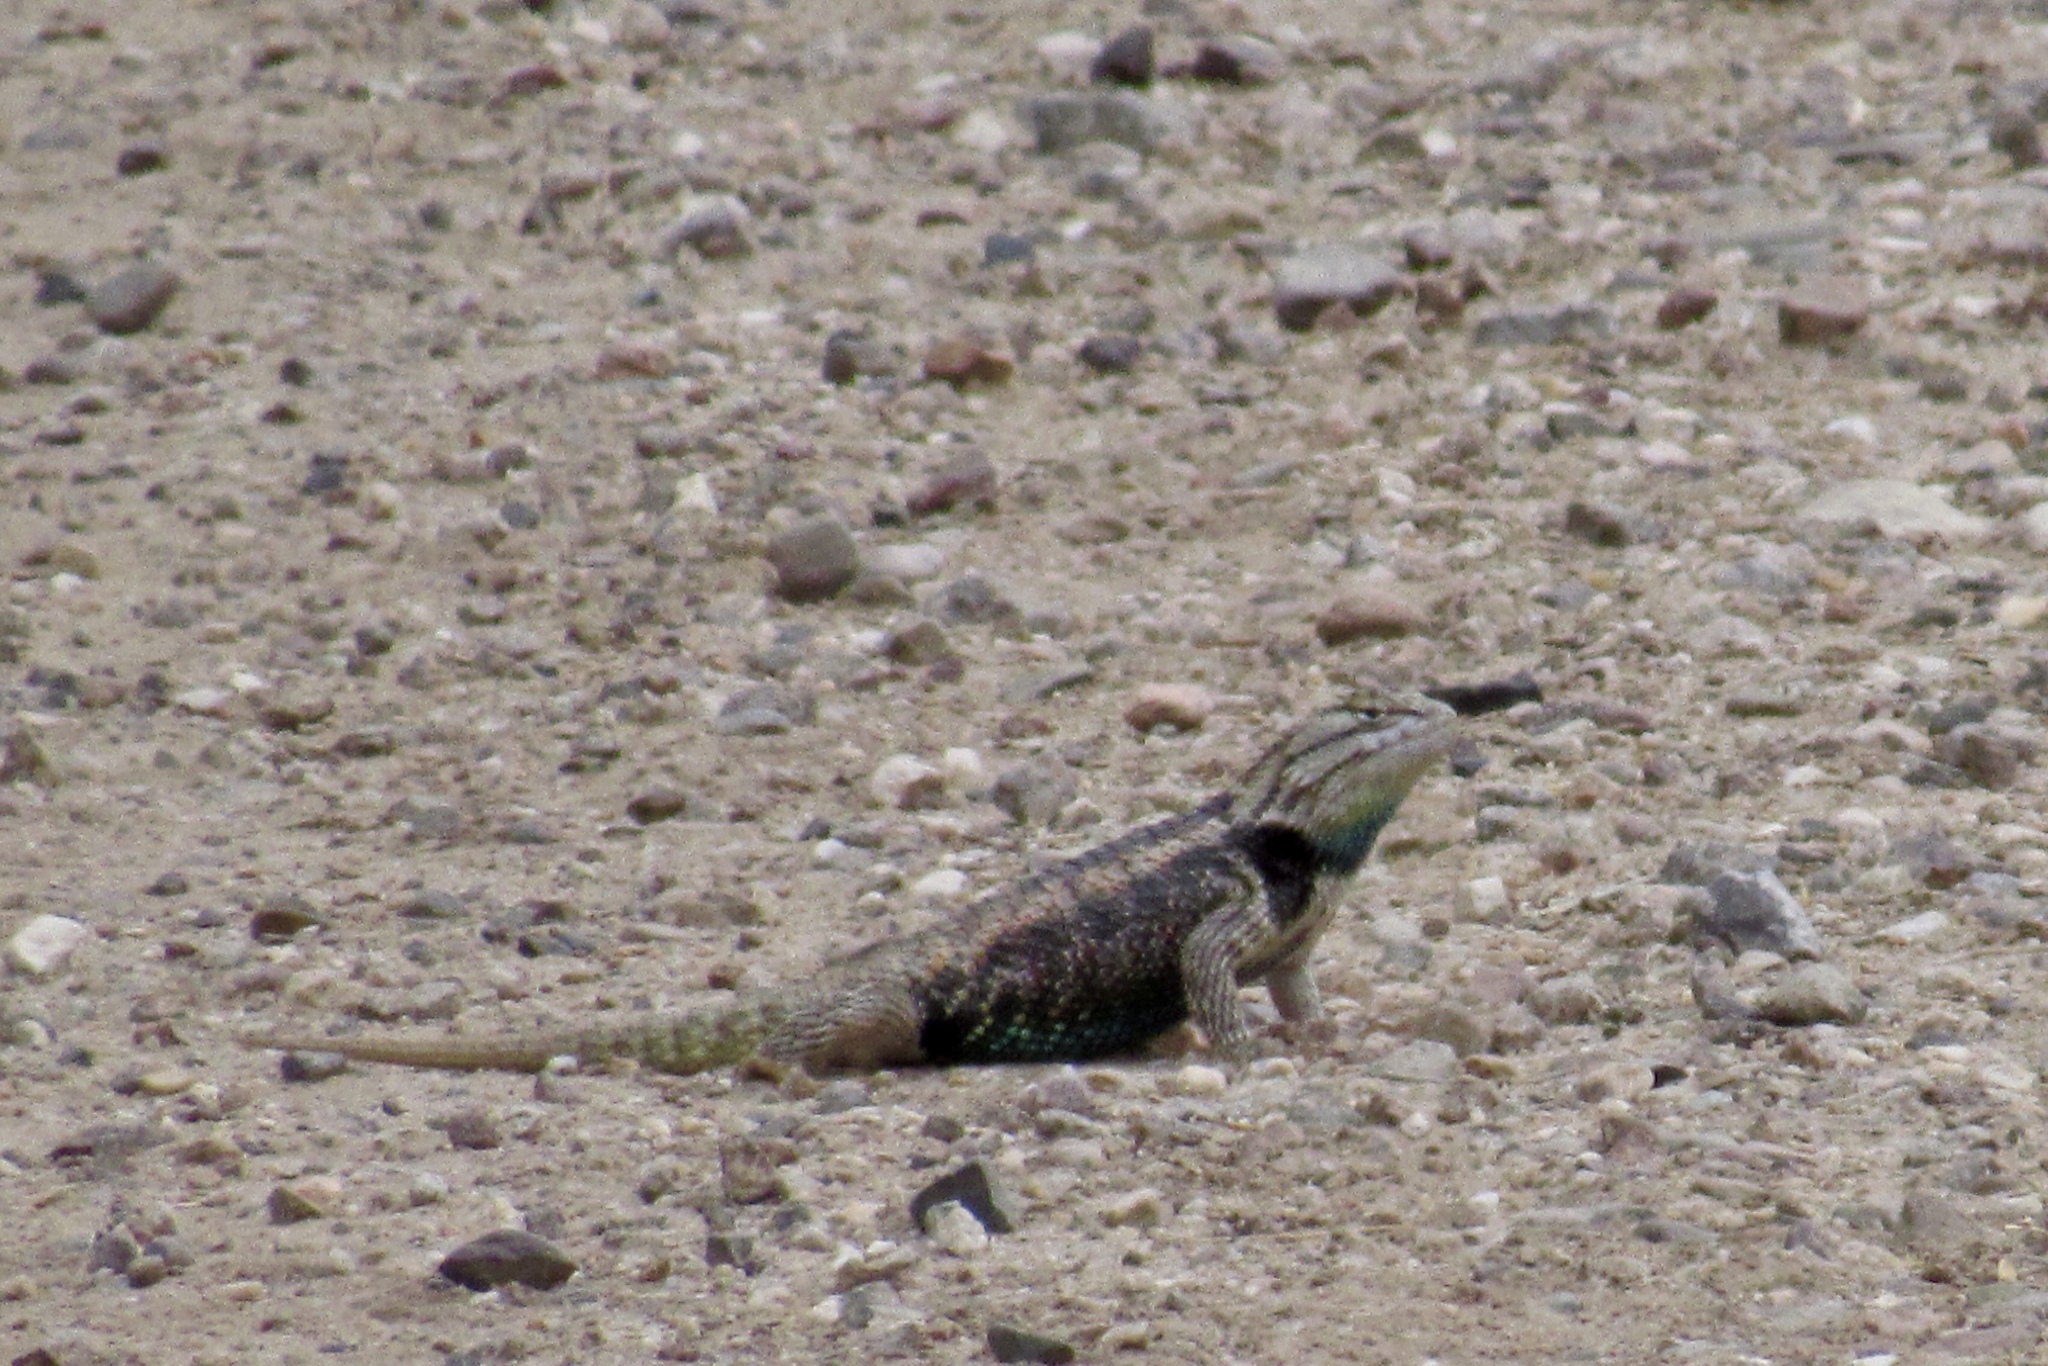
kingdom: Animalia
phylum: Chordata
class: Squamata
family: Phrynosomatidae
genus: Sceloporus
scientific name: Sceloporus magister
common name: Desert spiny lizard
